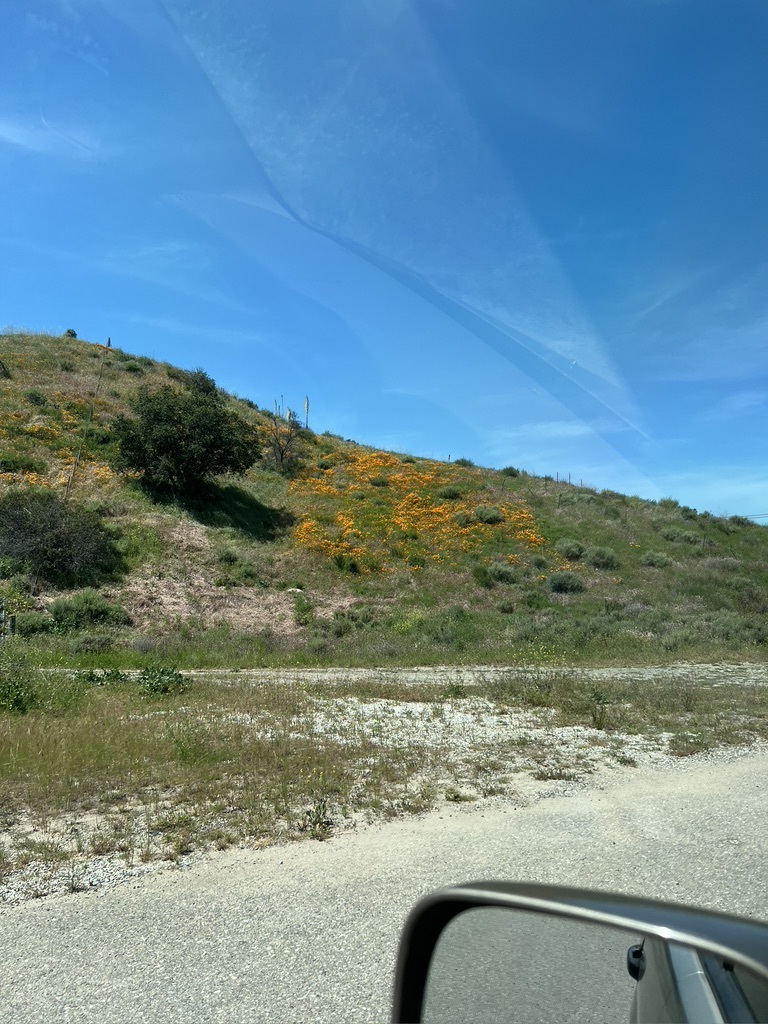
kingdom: Plantae
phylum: Tracheophyta
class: Magnoliopsida
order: Ranunculales
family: Papaveraceae
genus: Eschscholzia
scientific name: Eschscholzia californica
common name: California poppy
